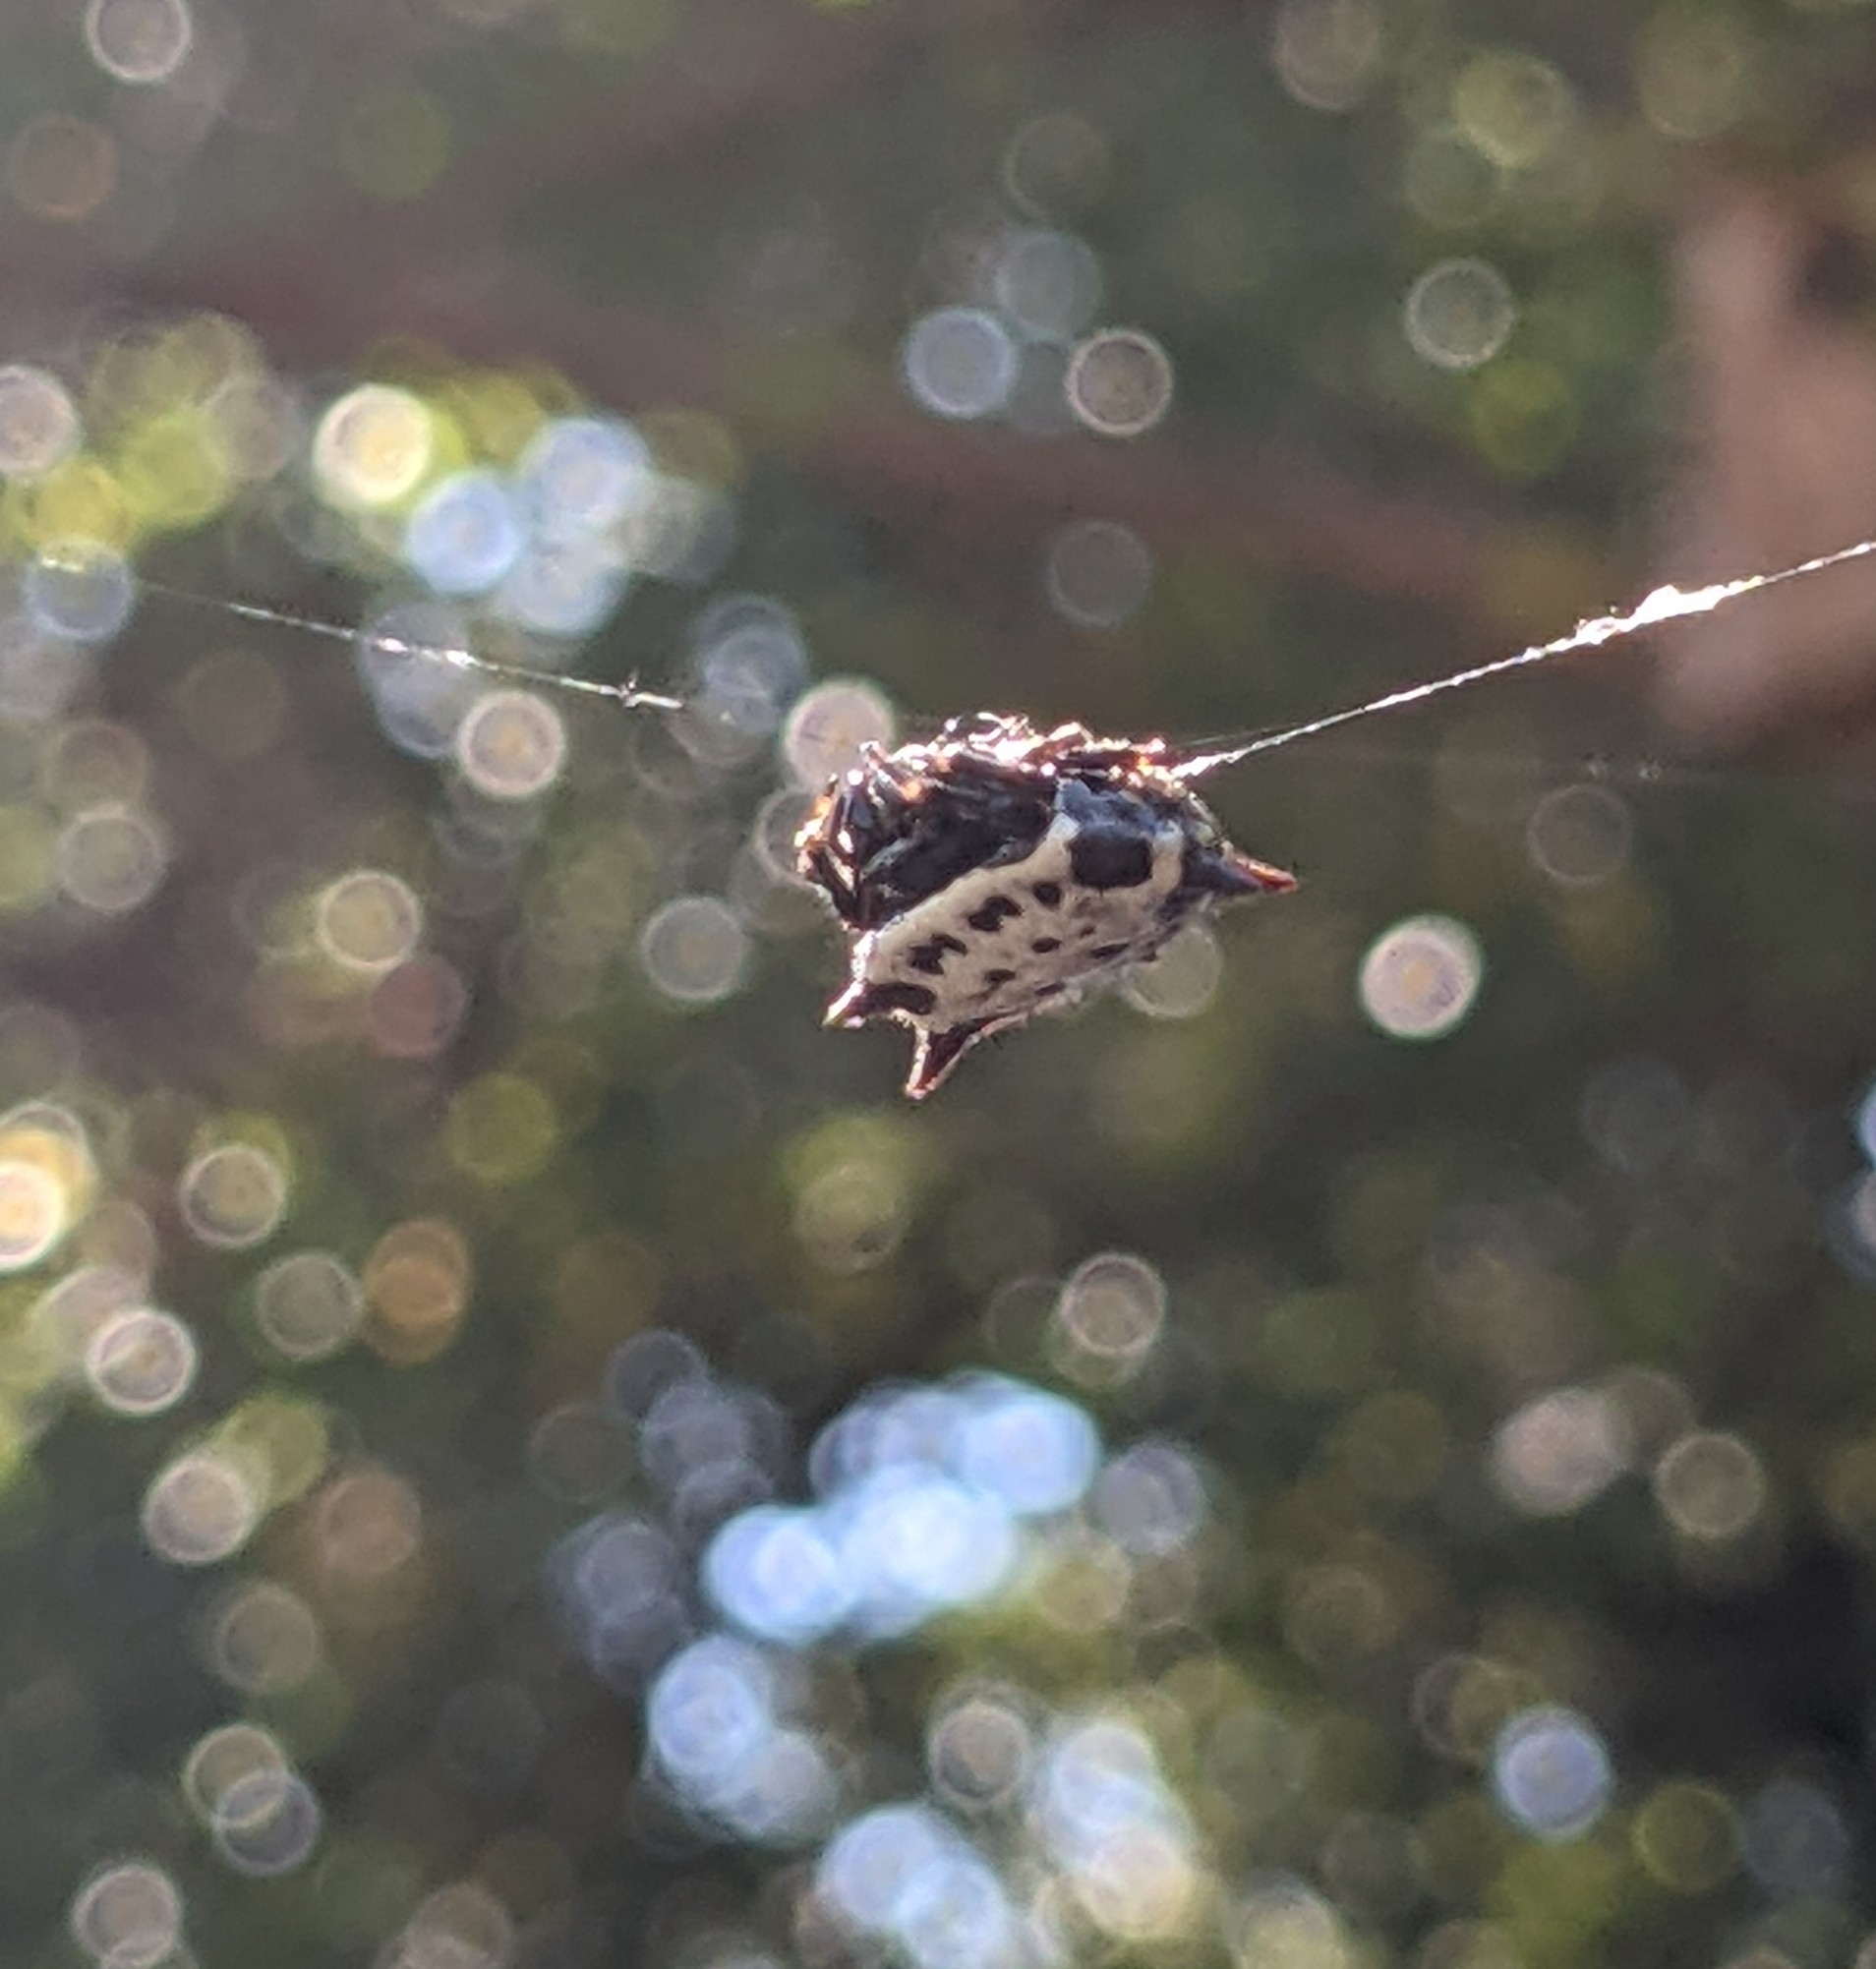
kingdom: Animalia
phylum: Arthropoda
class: Arachnida
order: Araneae
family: Araneidae
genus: Gasteracantha
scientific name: Gasteracantha cancriformis
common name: Orb weavers
